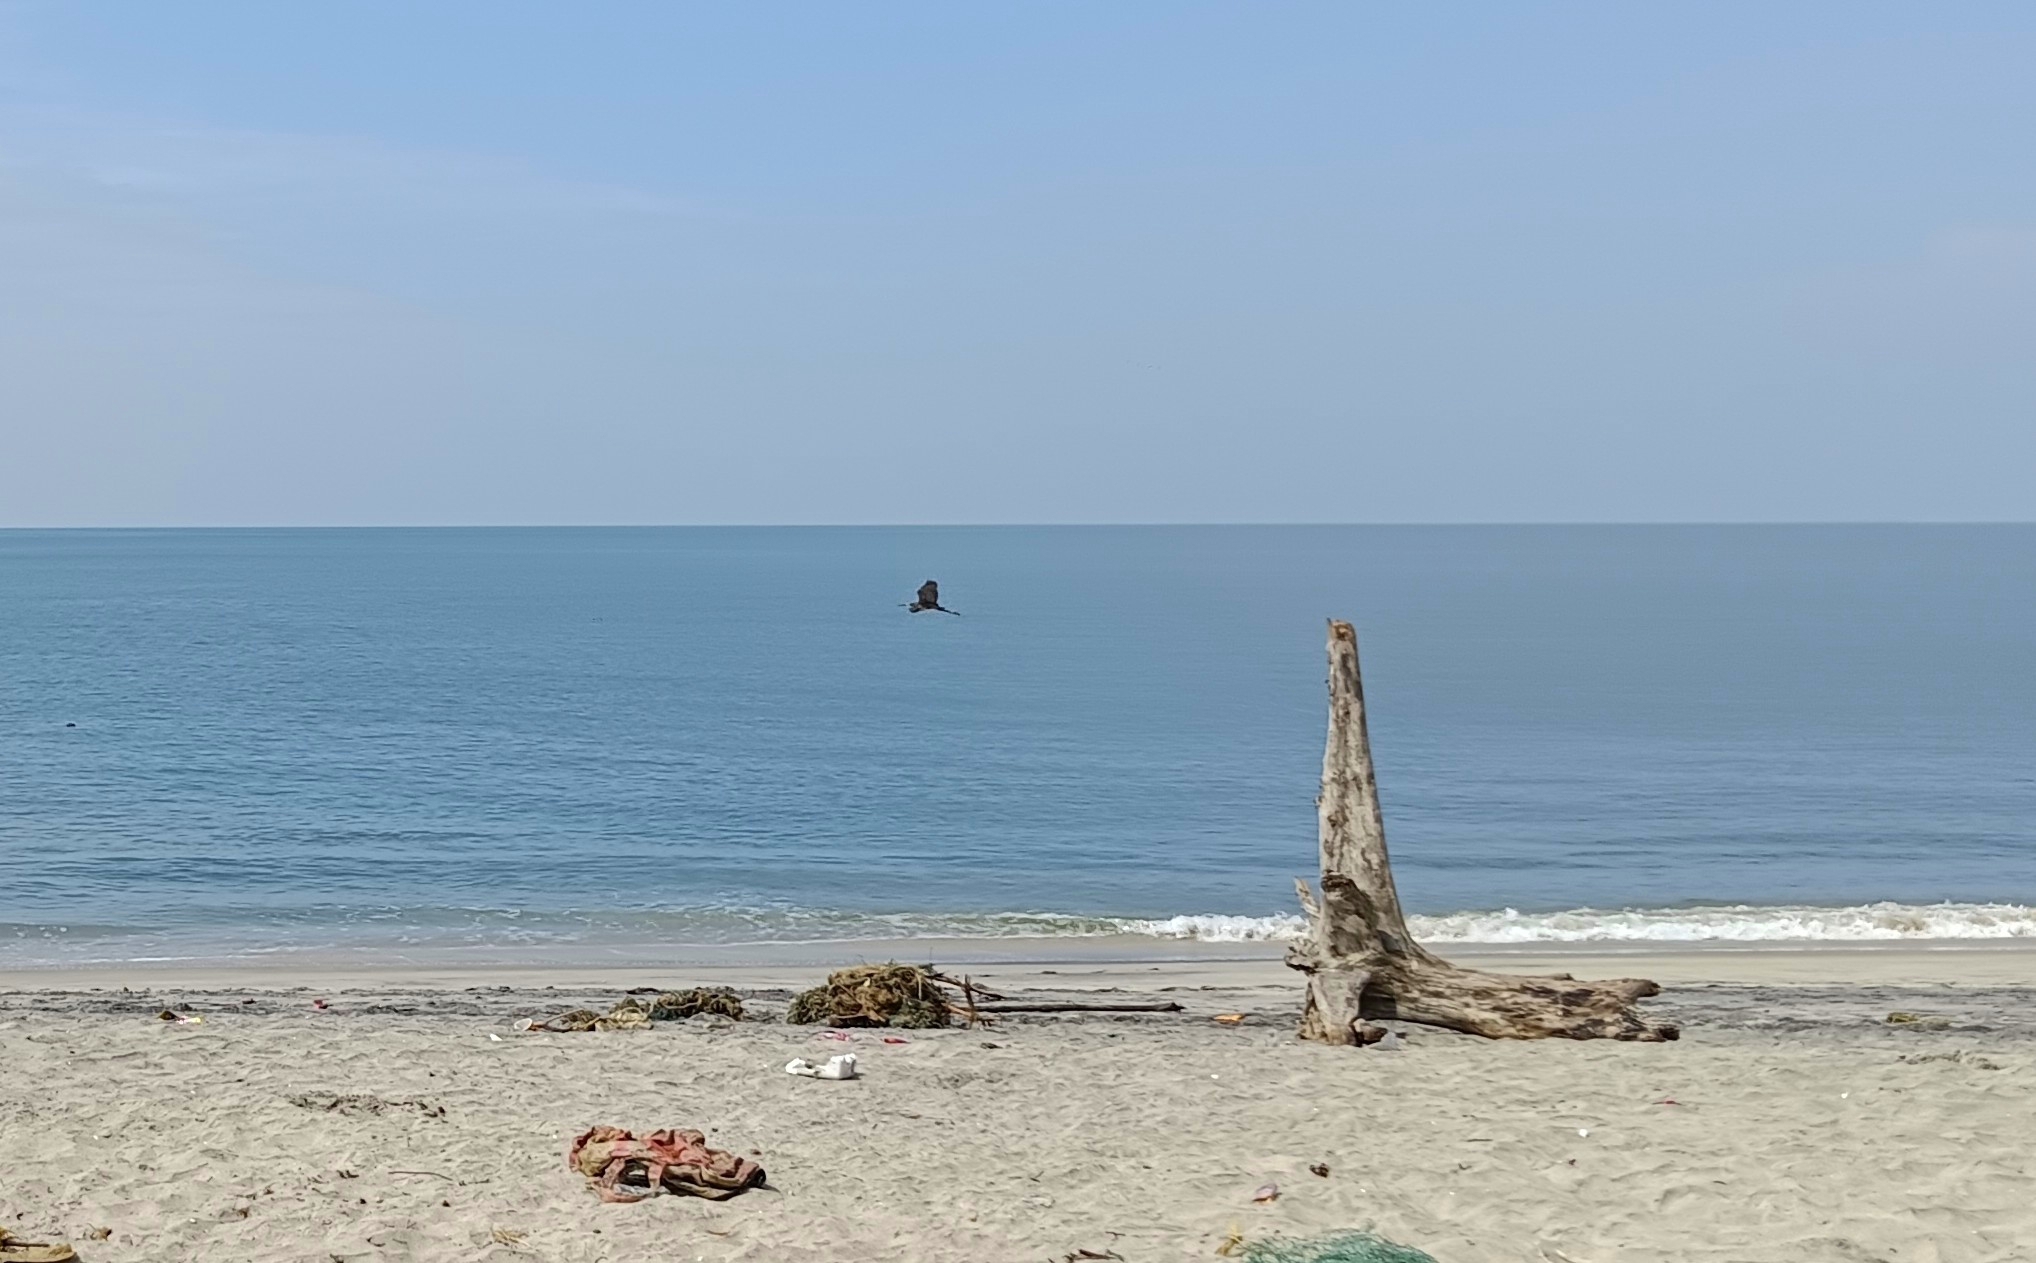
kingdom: Animalia
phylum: Chordata
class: Aves
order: Pelecaniformes
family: Ardeidae
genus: Egretta
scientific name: Egretta gularis
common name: Western reef-heron
